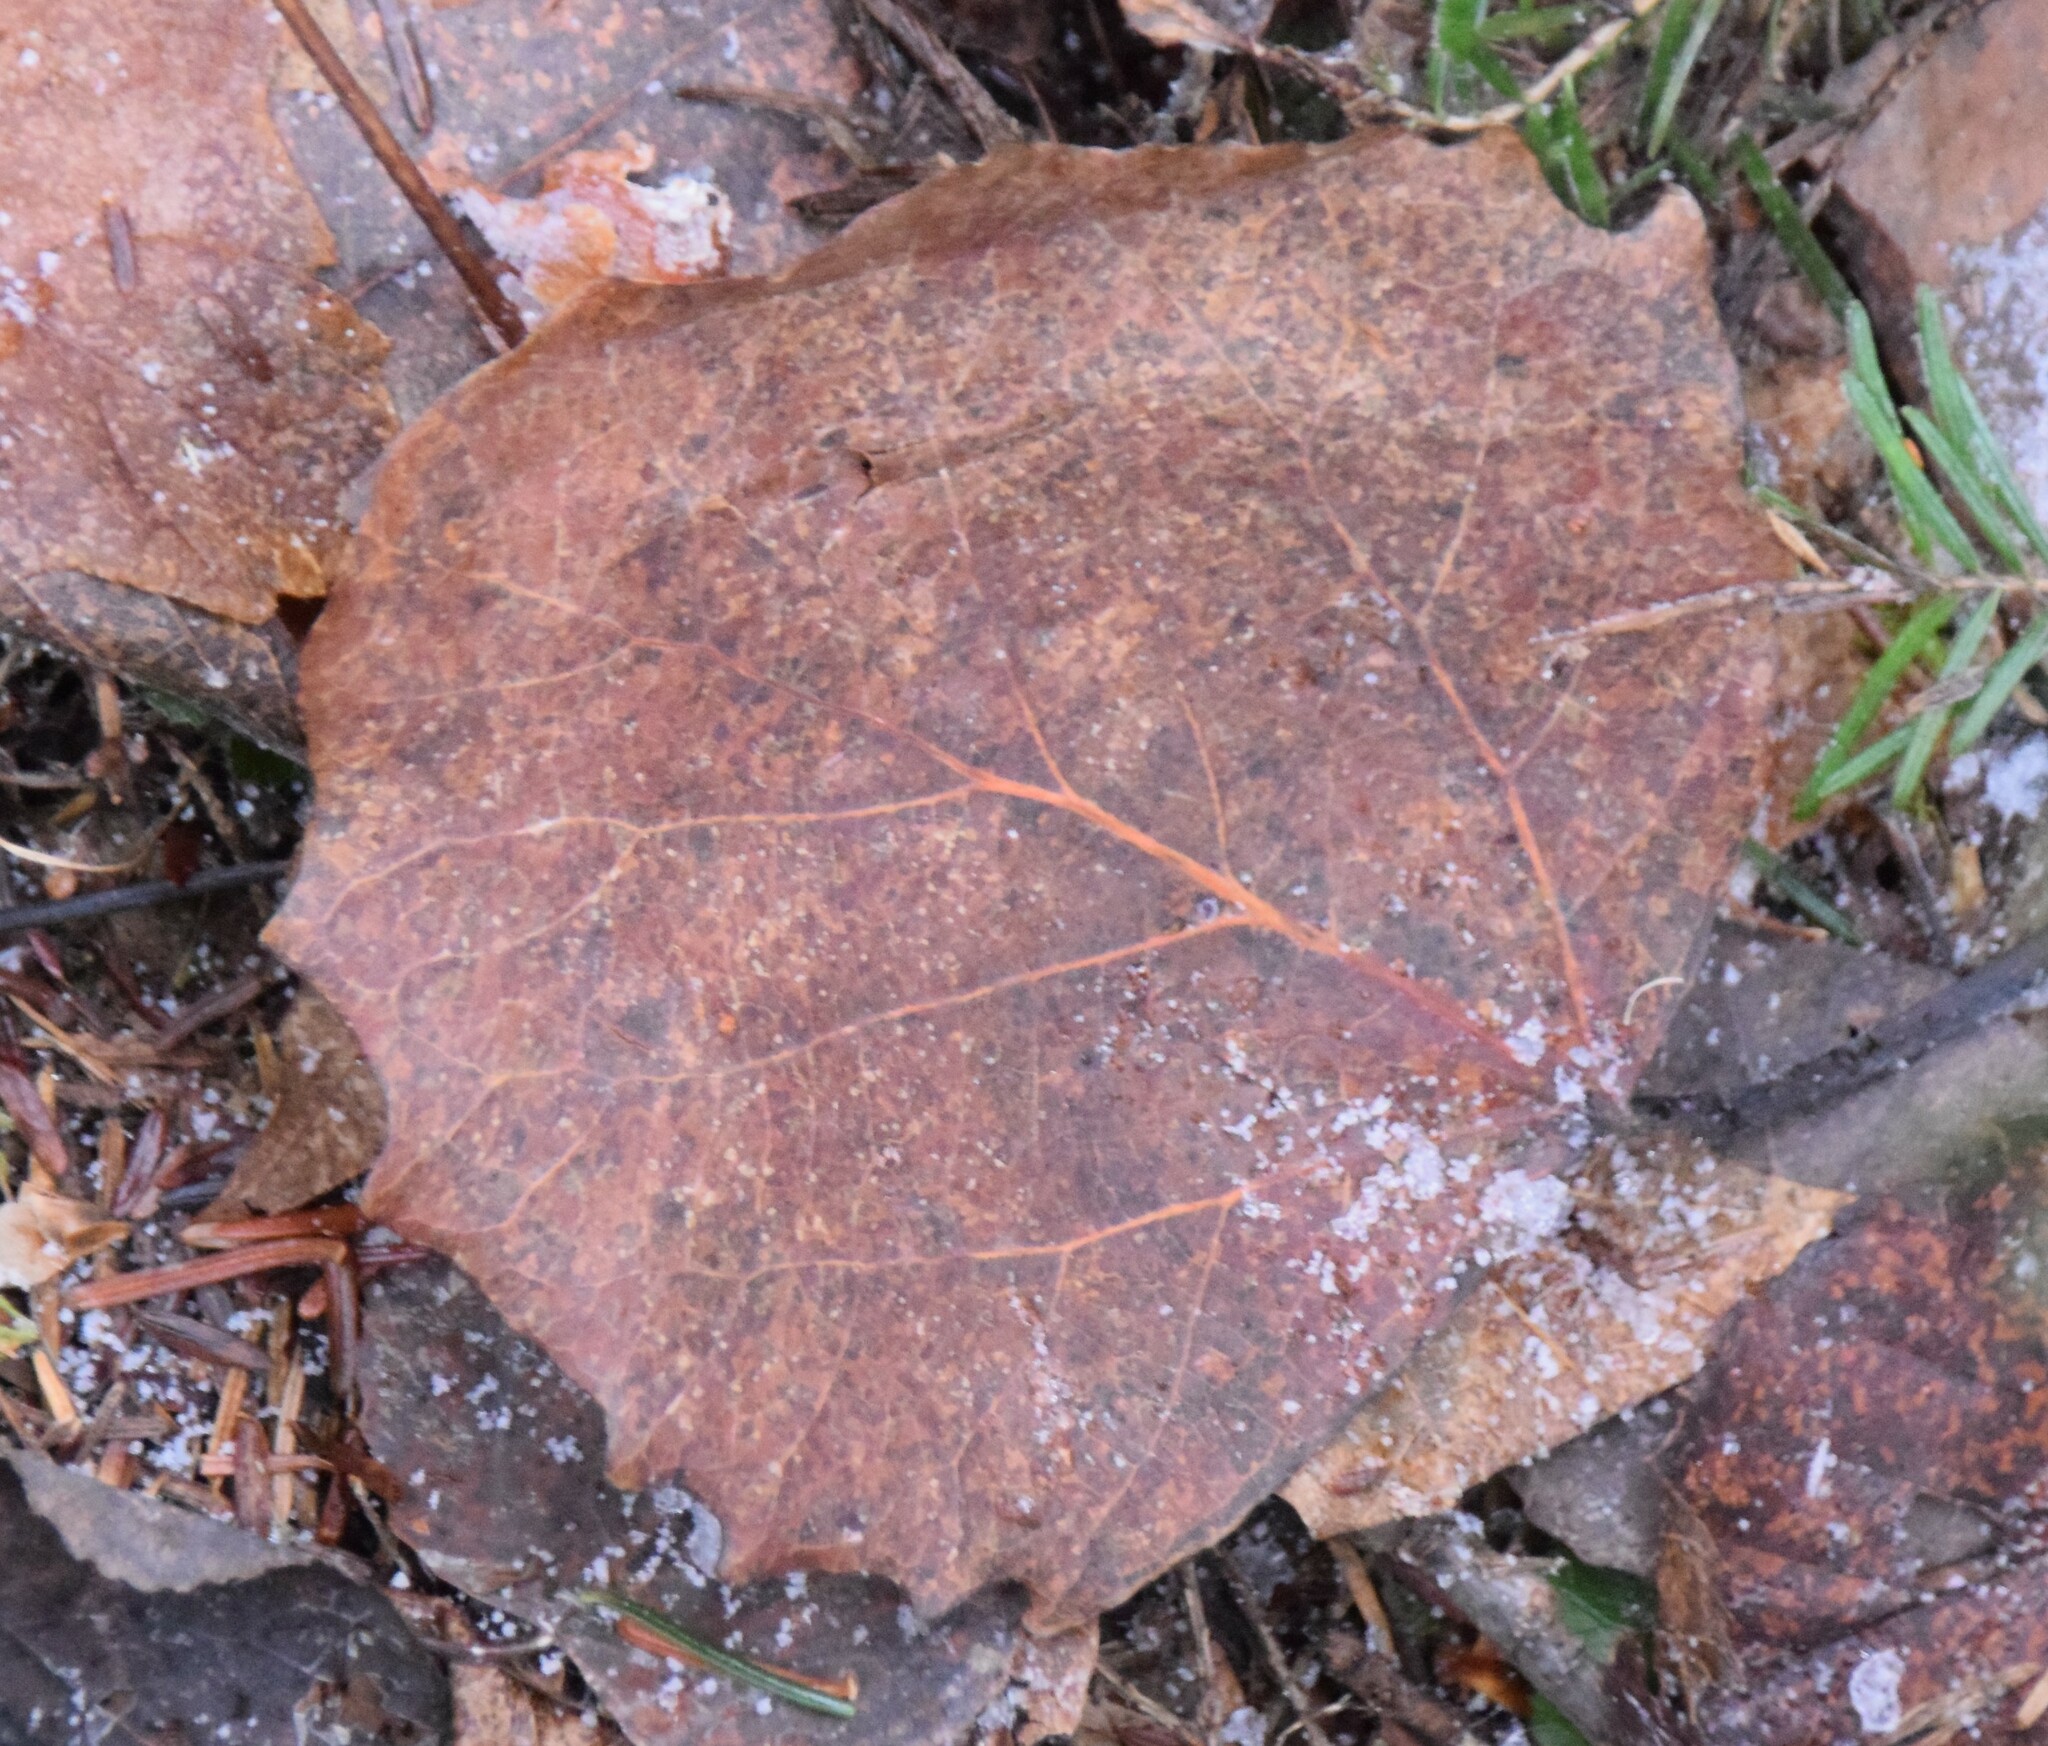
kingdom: Plantae
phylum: Tracheophyta
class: Magnoliopsida
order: Malpighiales
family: Salicaceae
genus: Populus
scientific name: Populus grandidentata
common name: Bigtooth aspen
